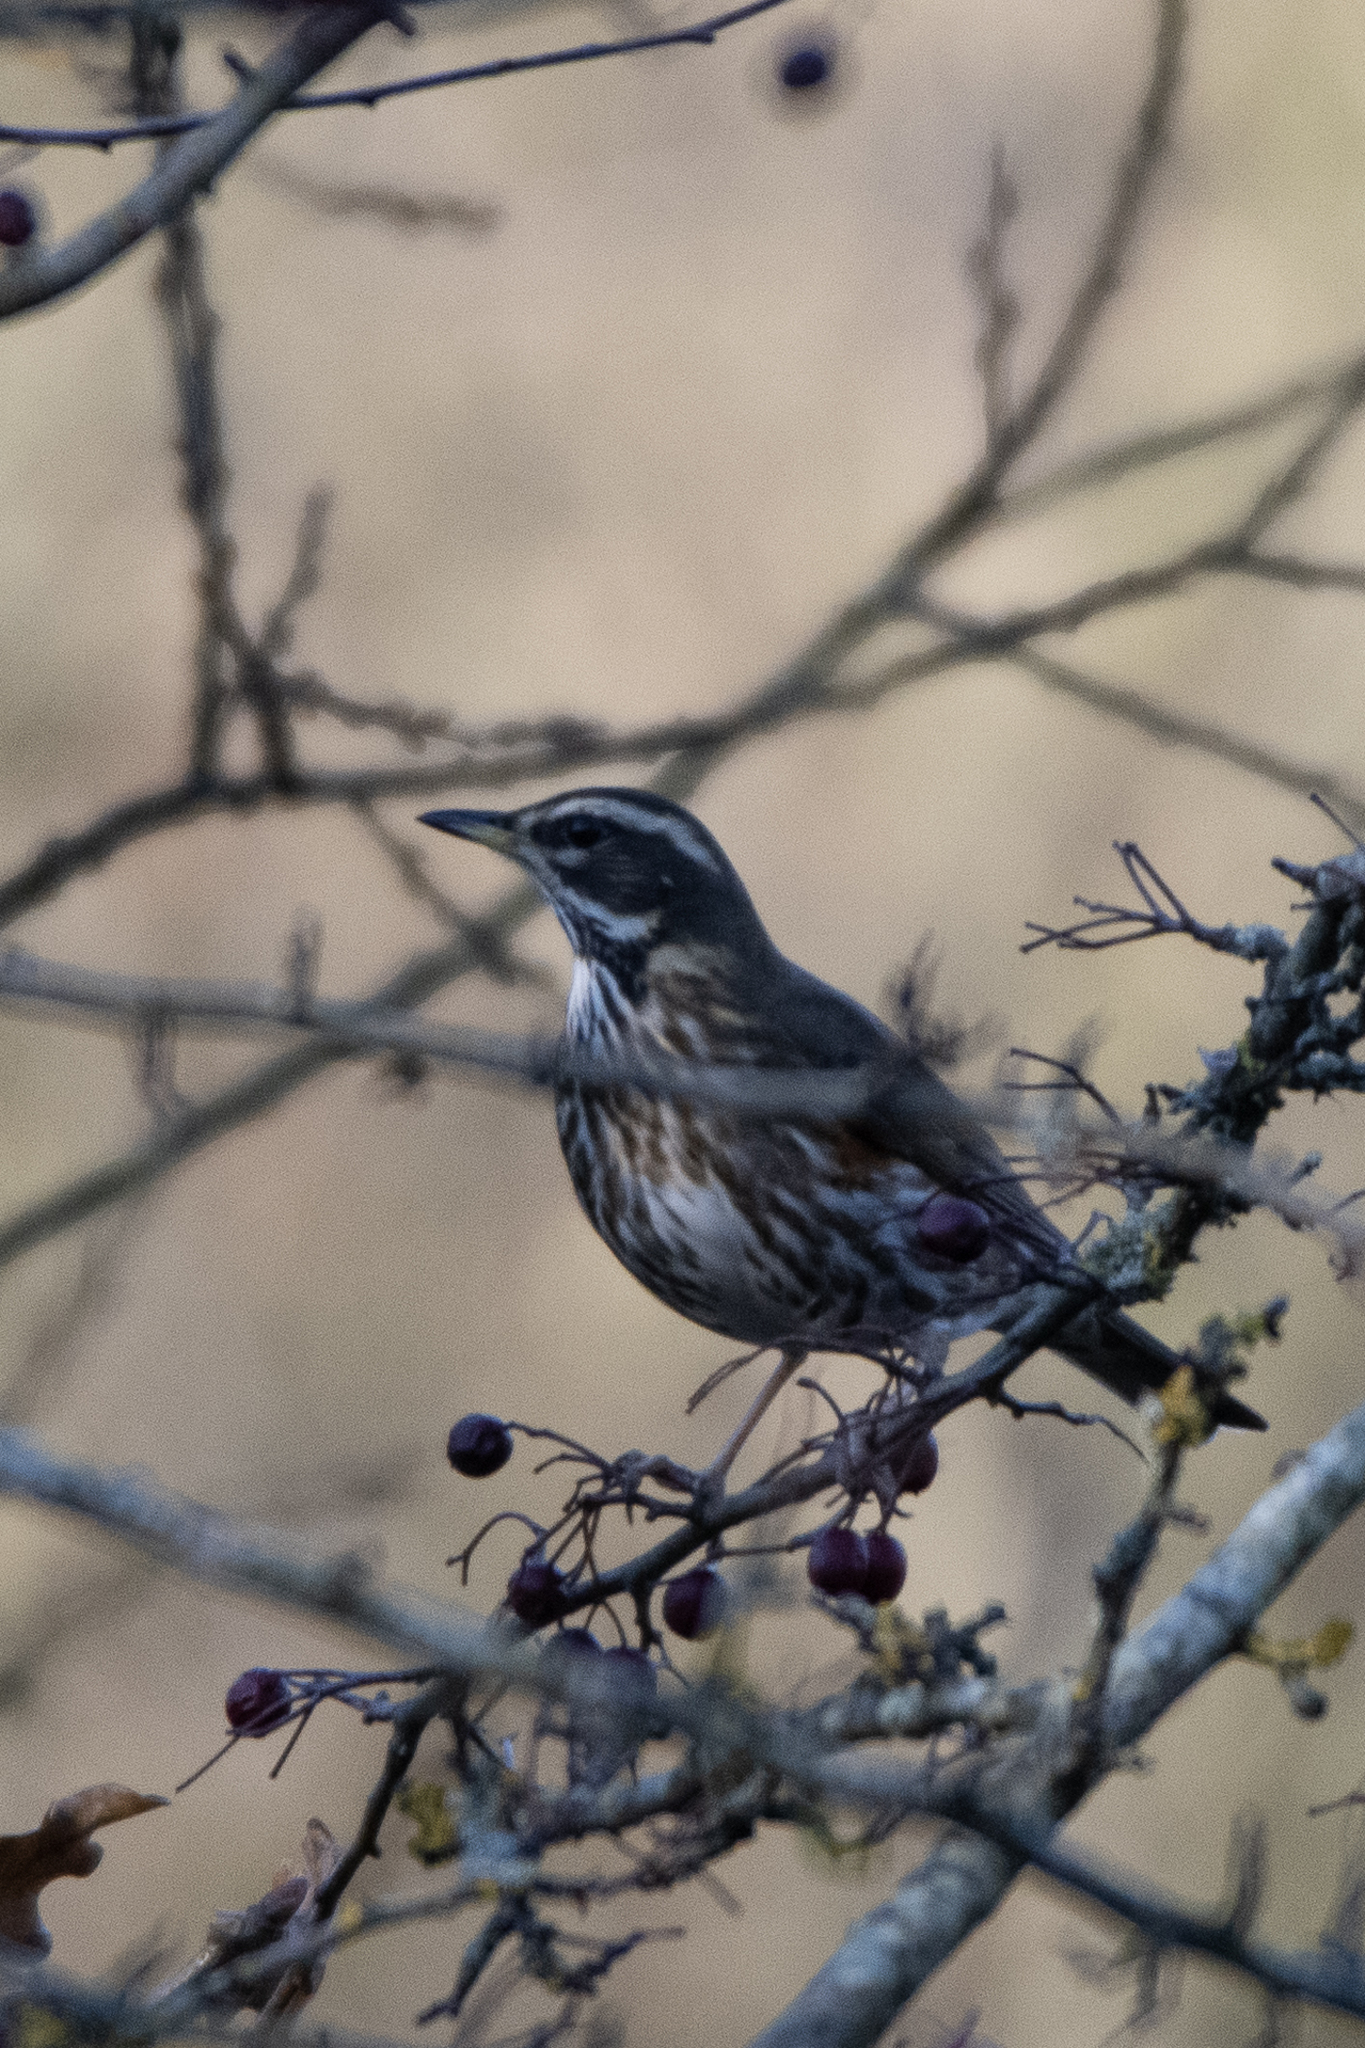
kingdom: Animalia
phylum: Chordata
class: Aves
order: Passeriformes
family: Turdidae
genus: Turdus
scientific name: Turdus iliacus
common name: Redwing
